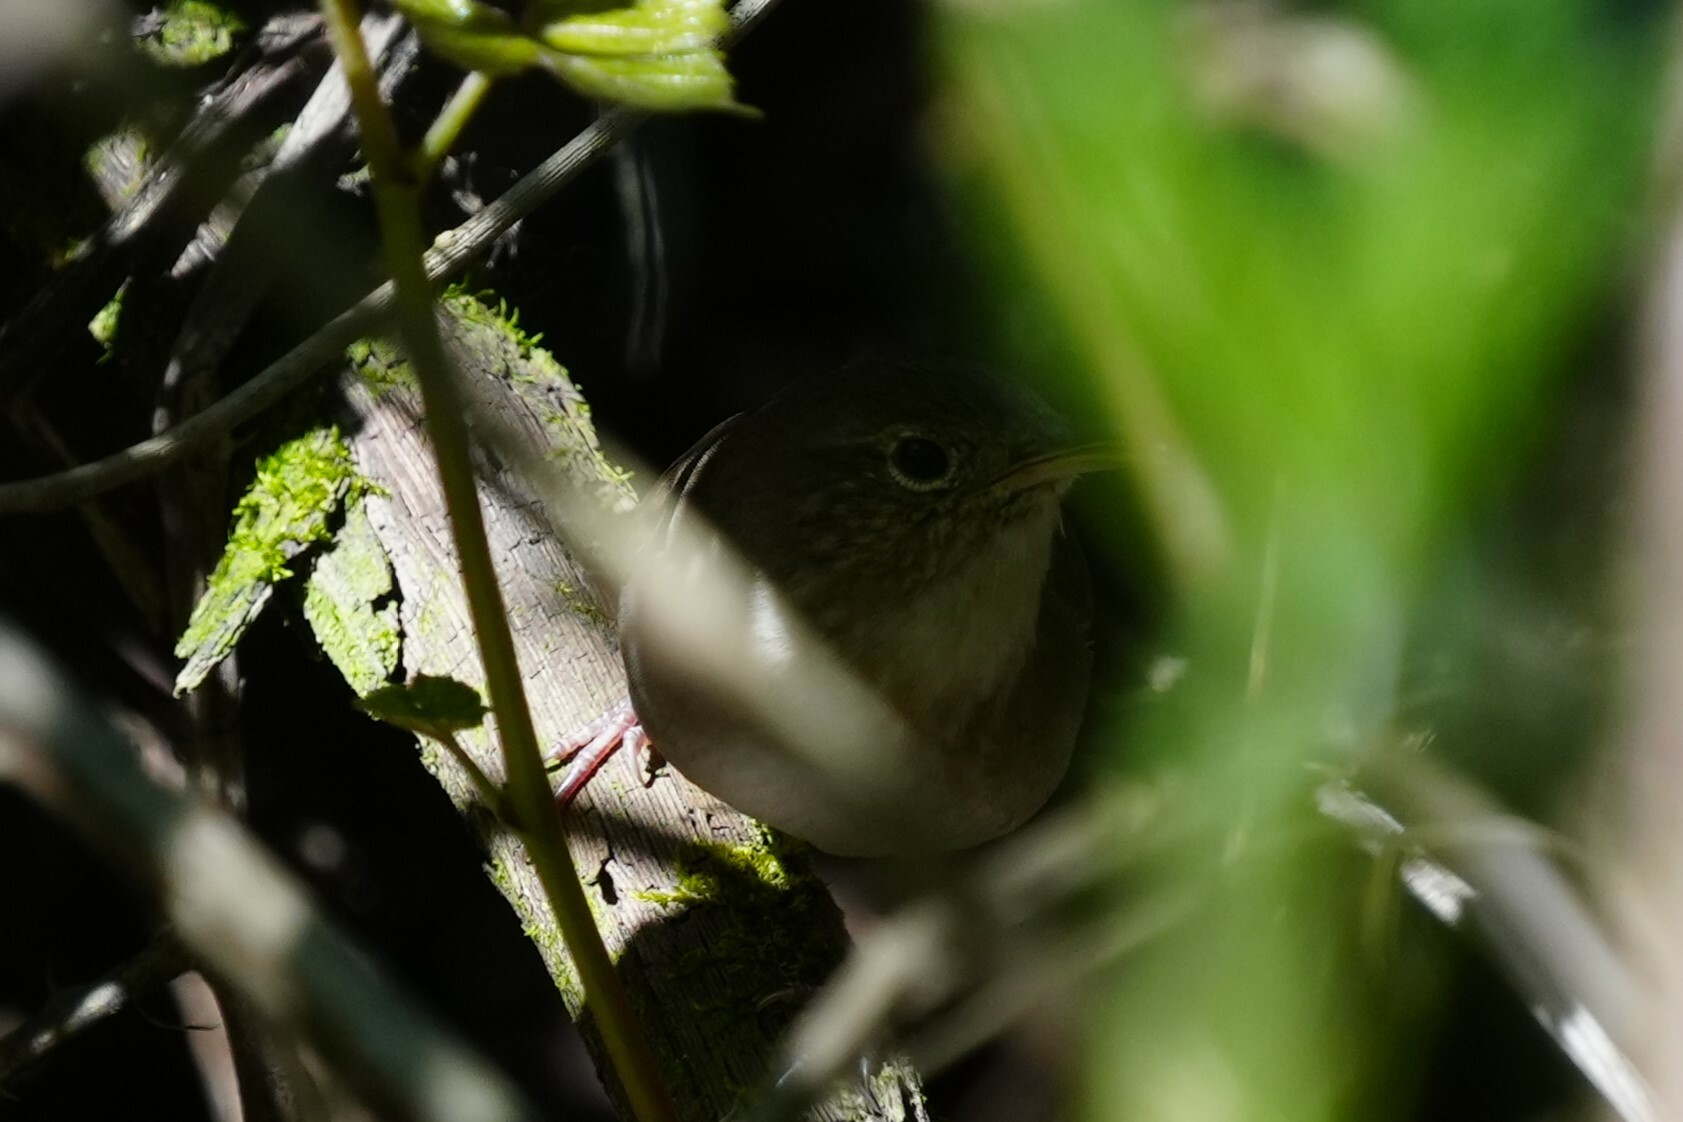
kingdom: Animalia
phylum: Chordata
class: Aves
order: Passeriformes
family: Troglodytidae
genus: Troglodytes
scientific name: Troglodytes aedon
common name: House wren
